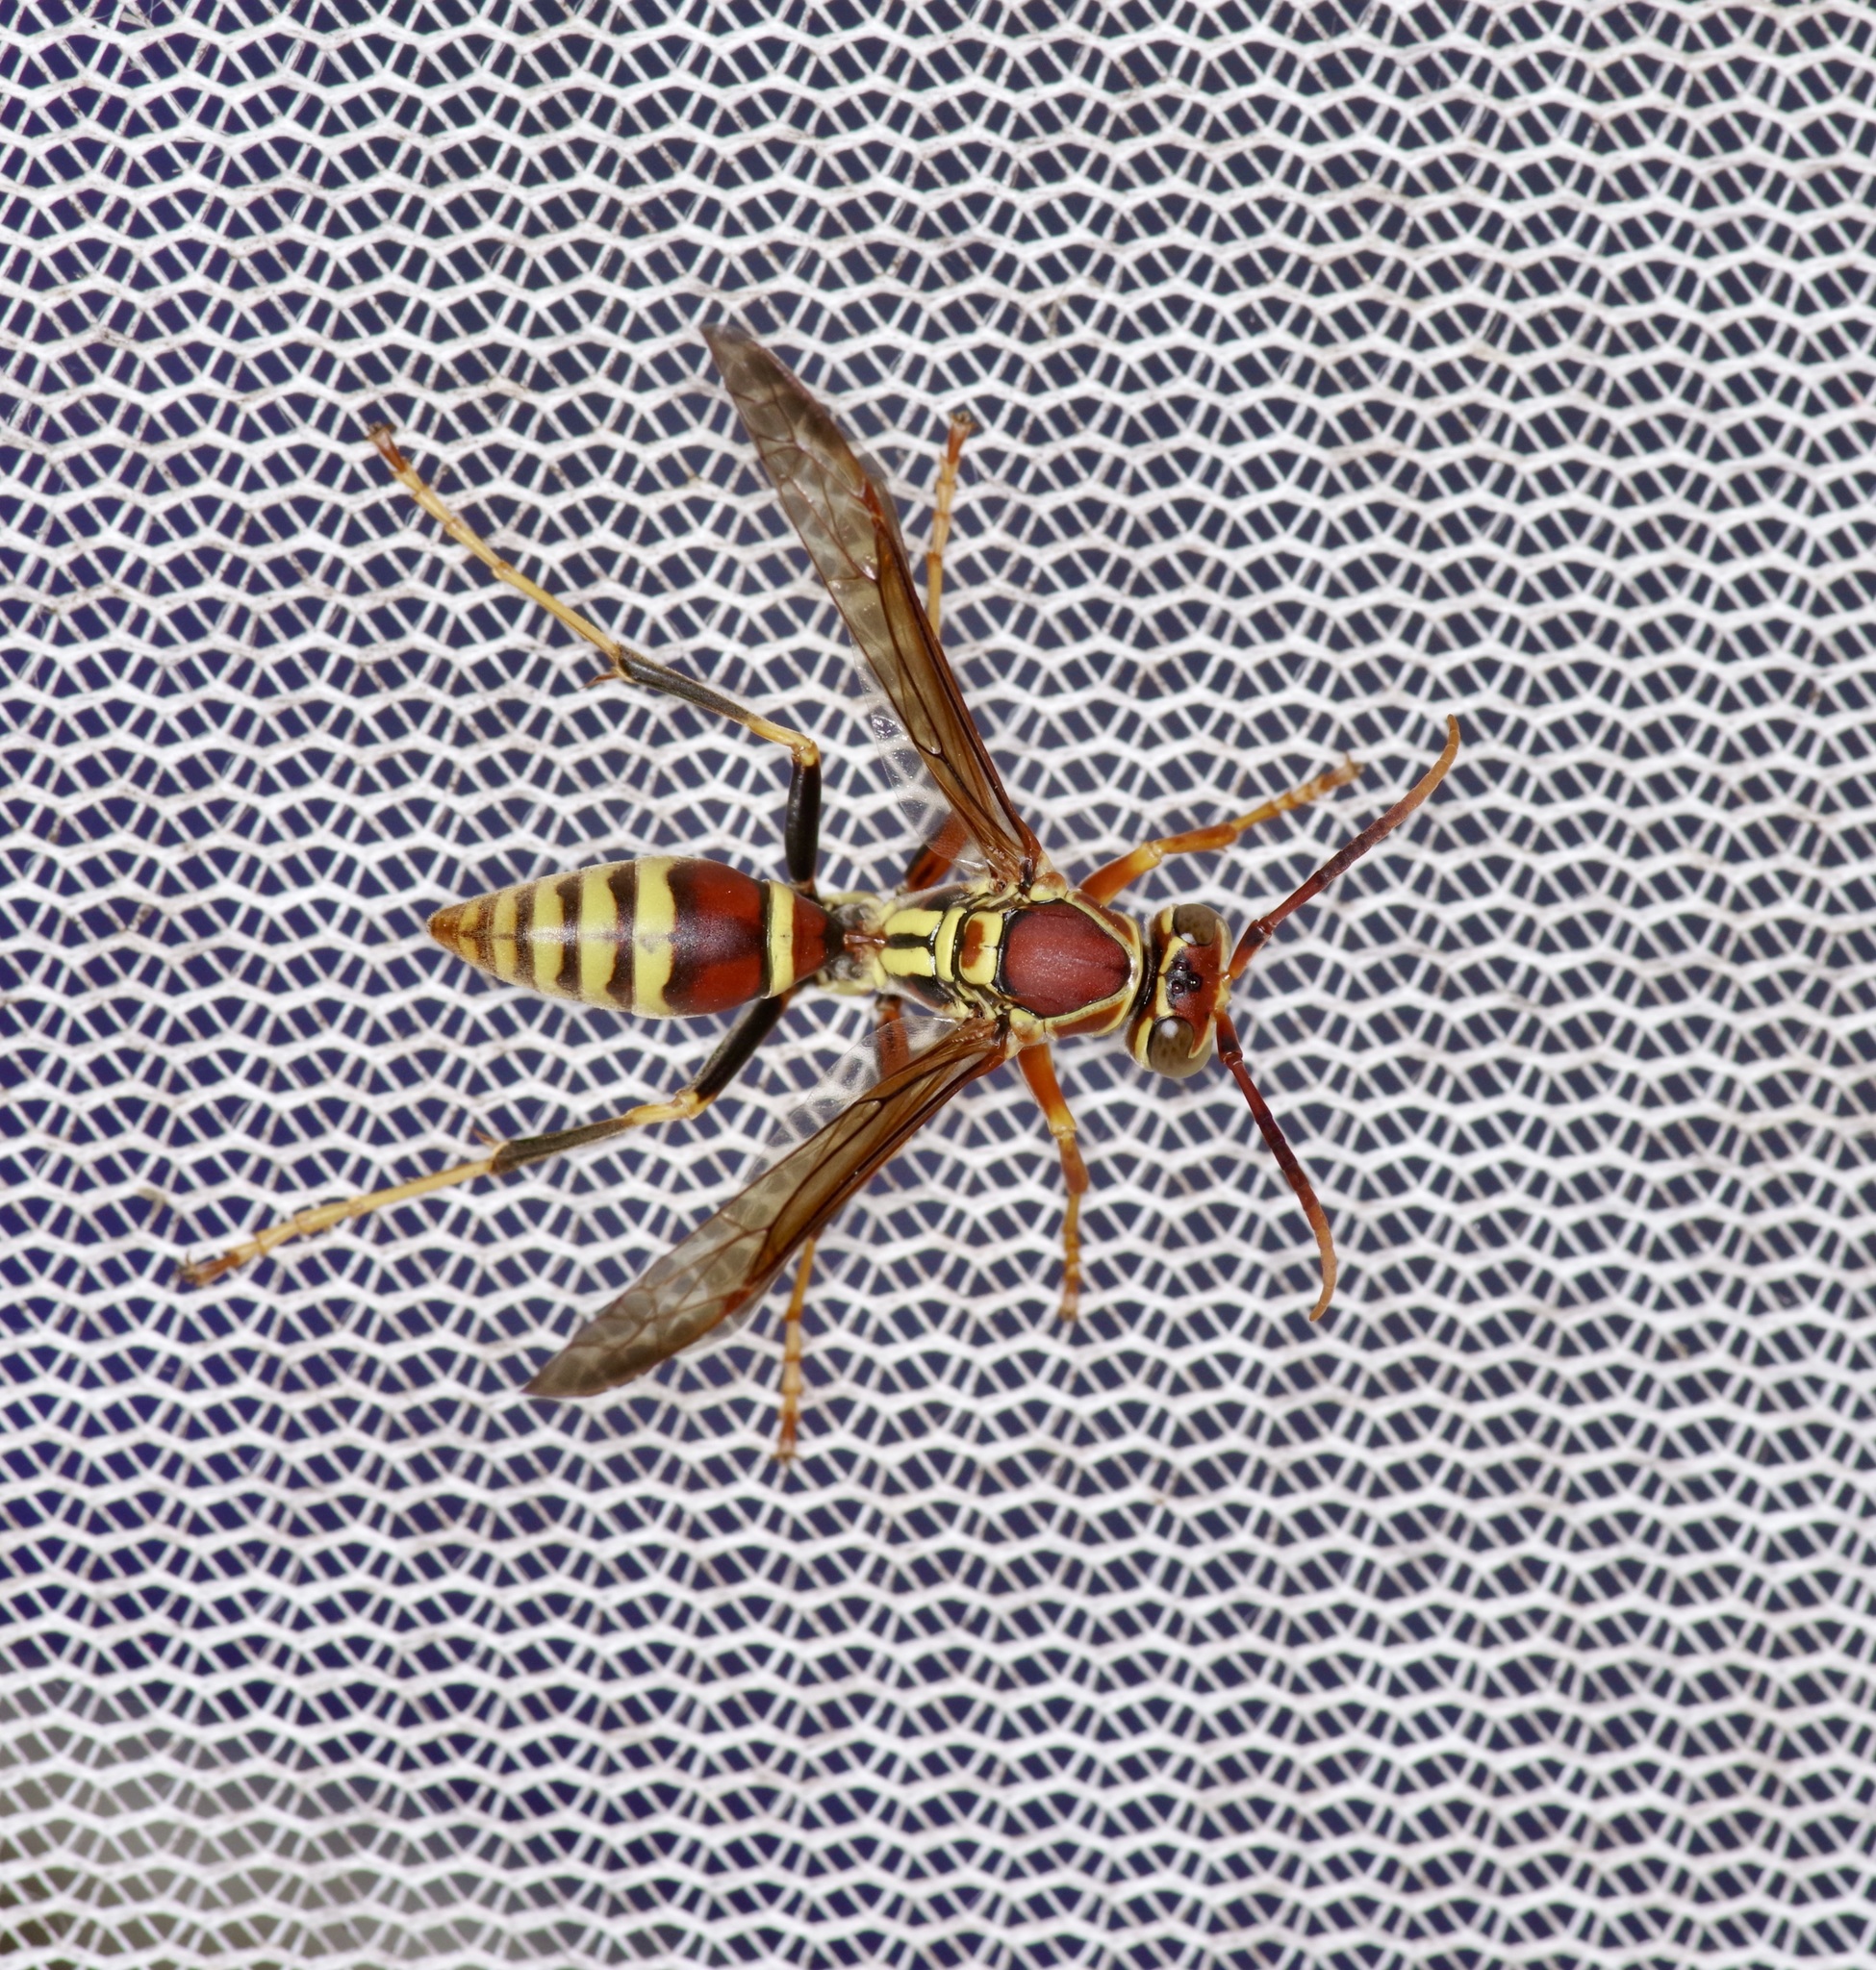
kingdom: Animalia
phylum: Arthropoda
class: Insecta
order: Hymenoptera
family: Eumenidae
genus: Polistes
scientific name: Polistes exclamans
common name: Paper wasp
